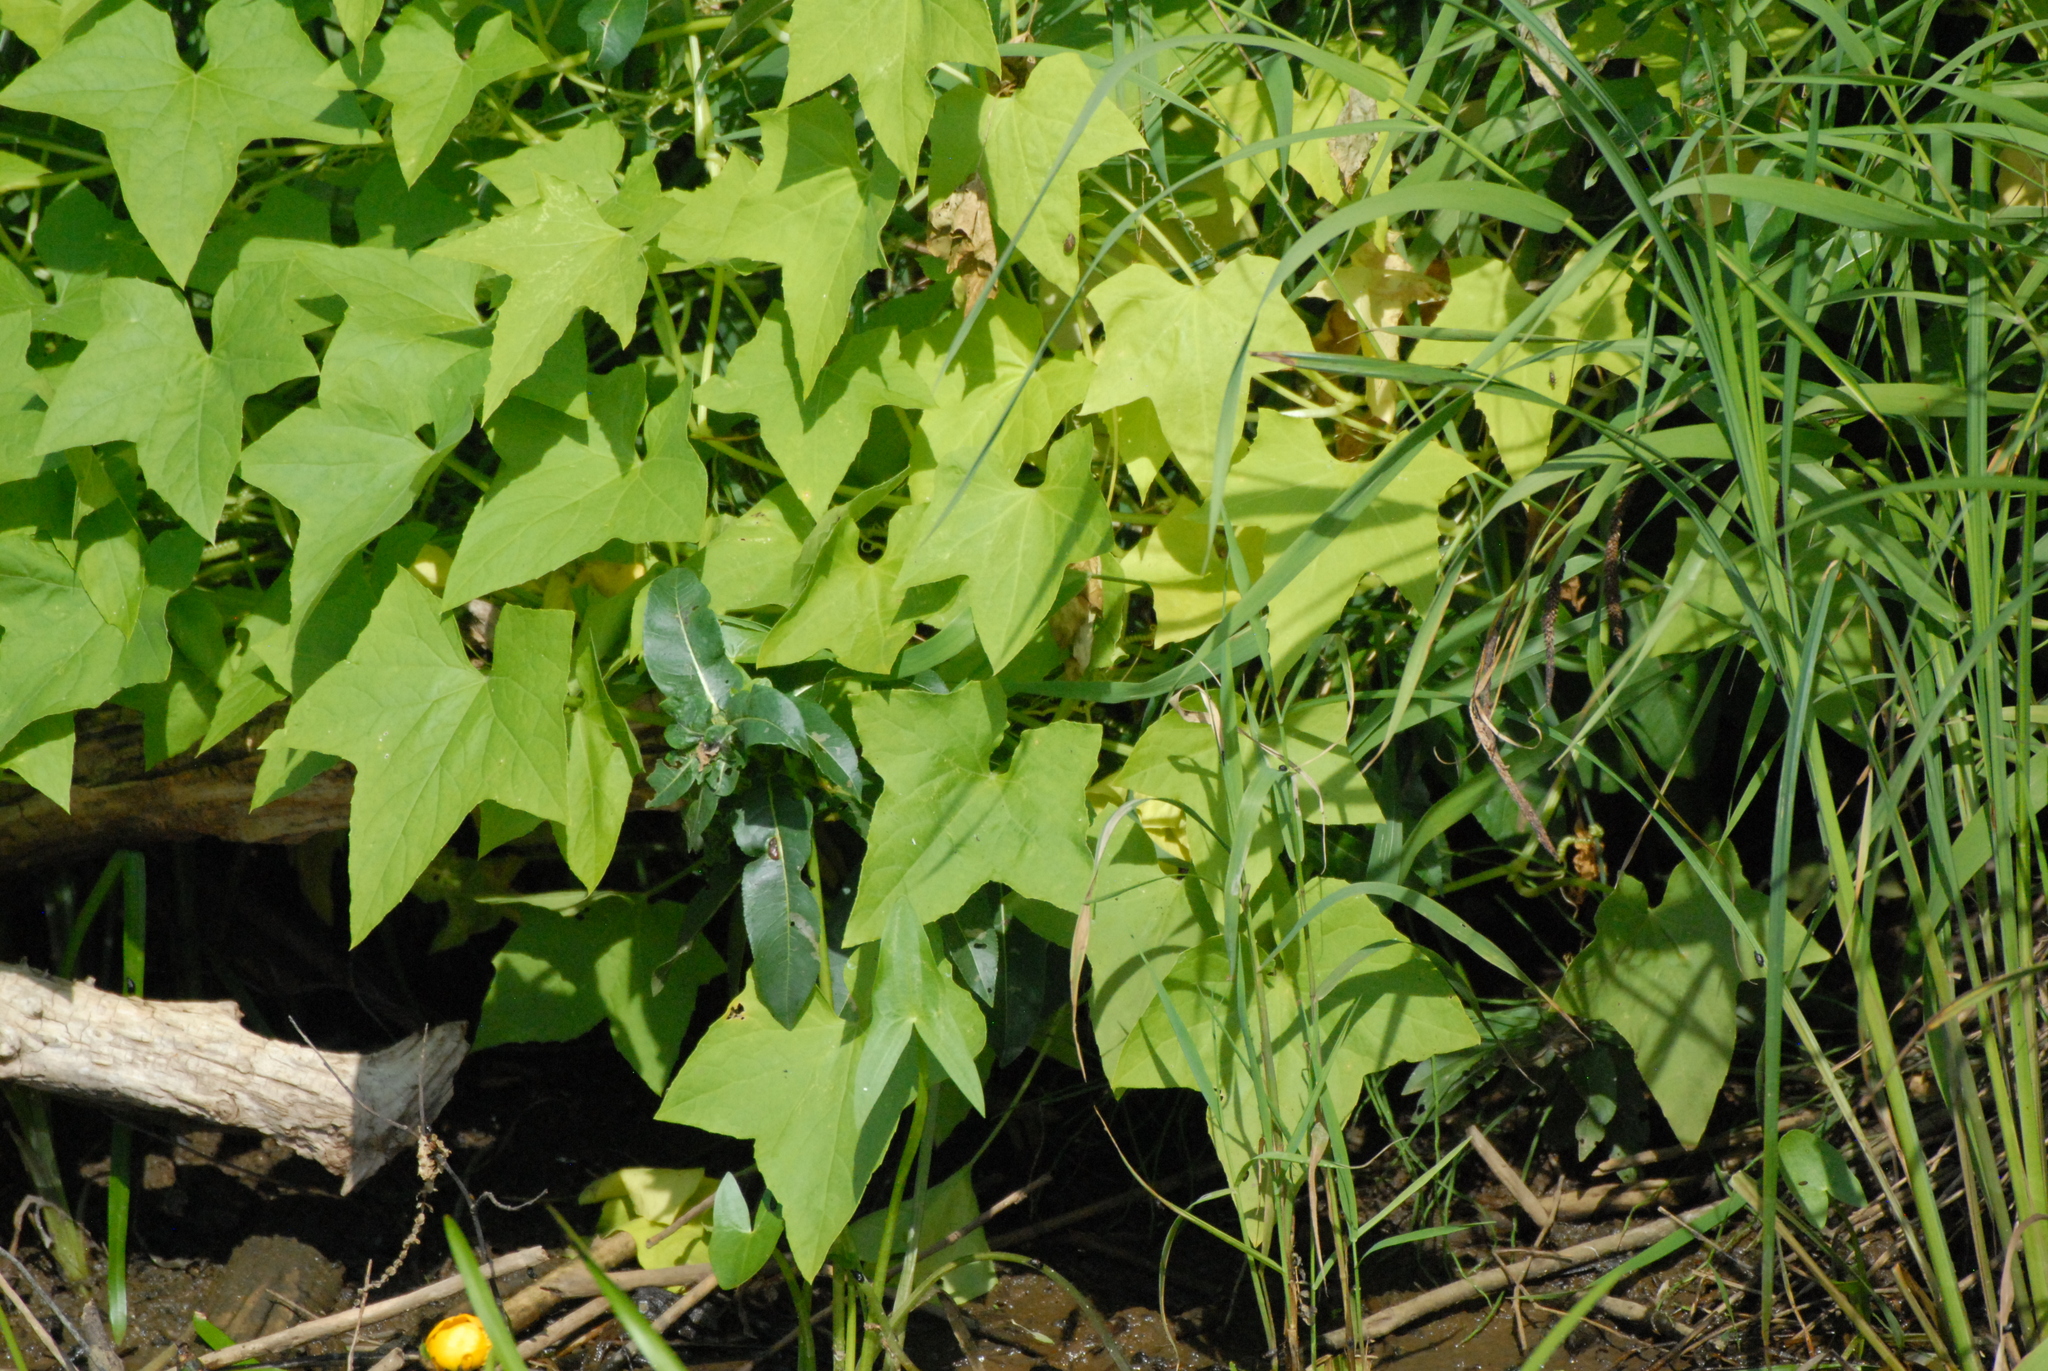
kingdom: Plantae
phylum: Tracheophyta
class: Magnoliopsida
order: Cucurbitales
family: Cucurbitaceae
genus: Echinocystis
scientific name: Echinocystis lobata
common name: Wild cucumber
